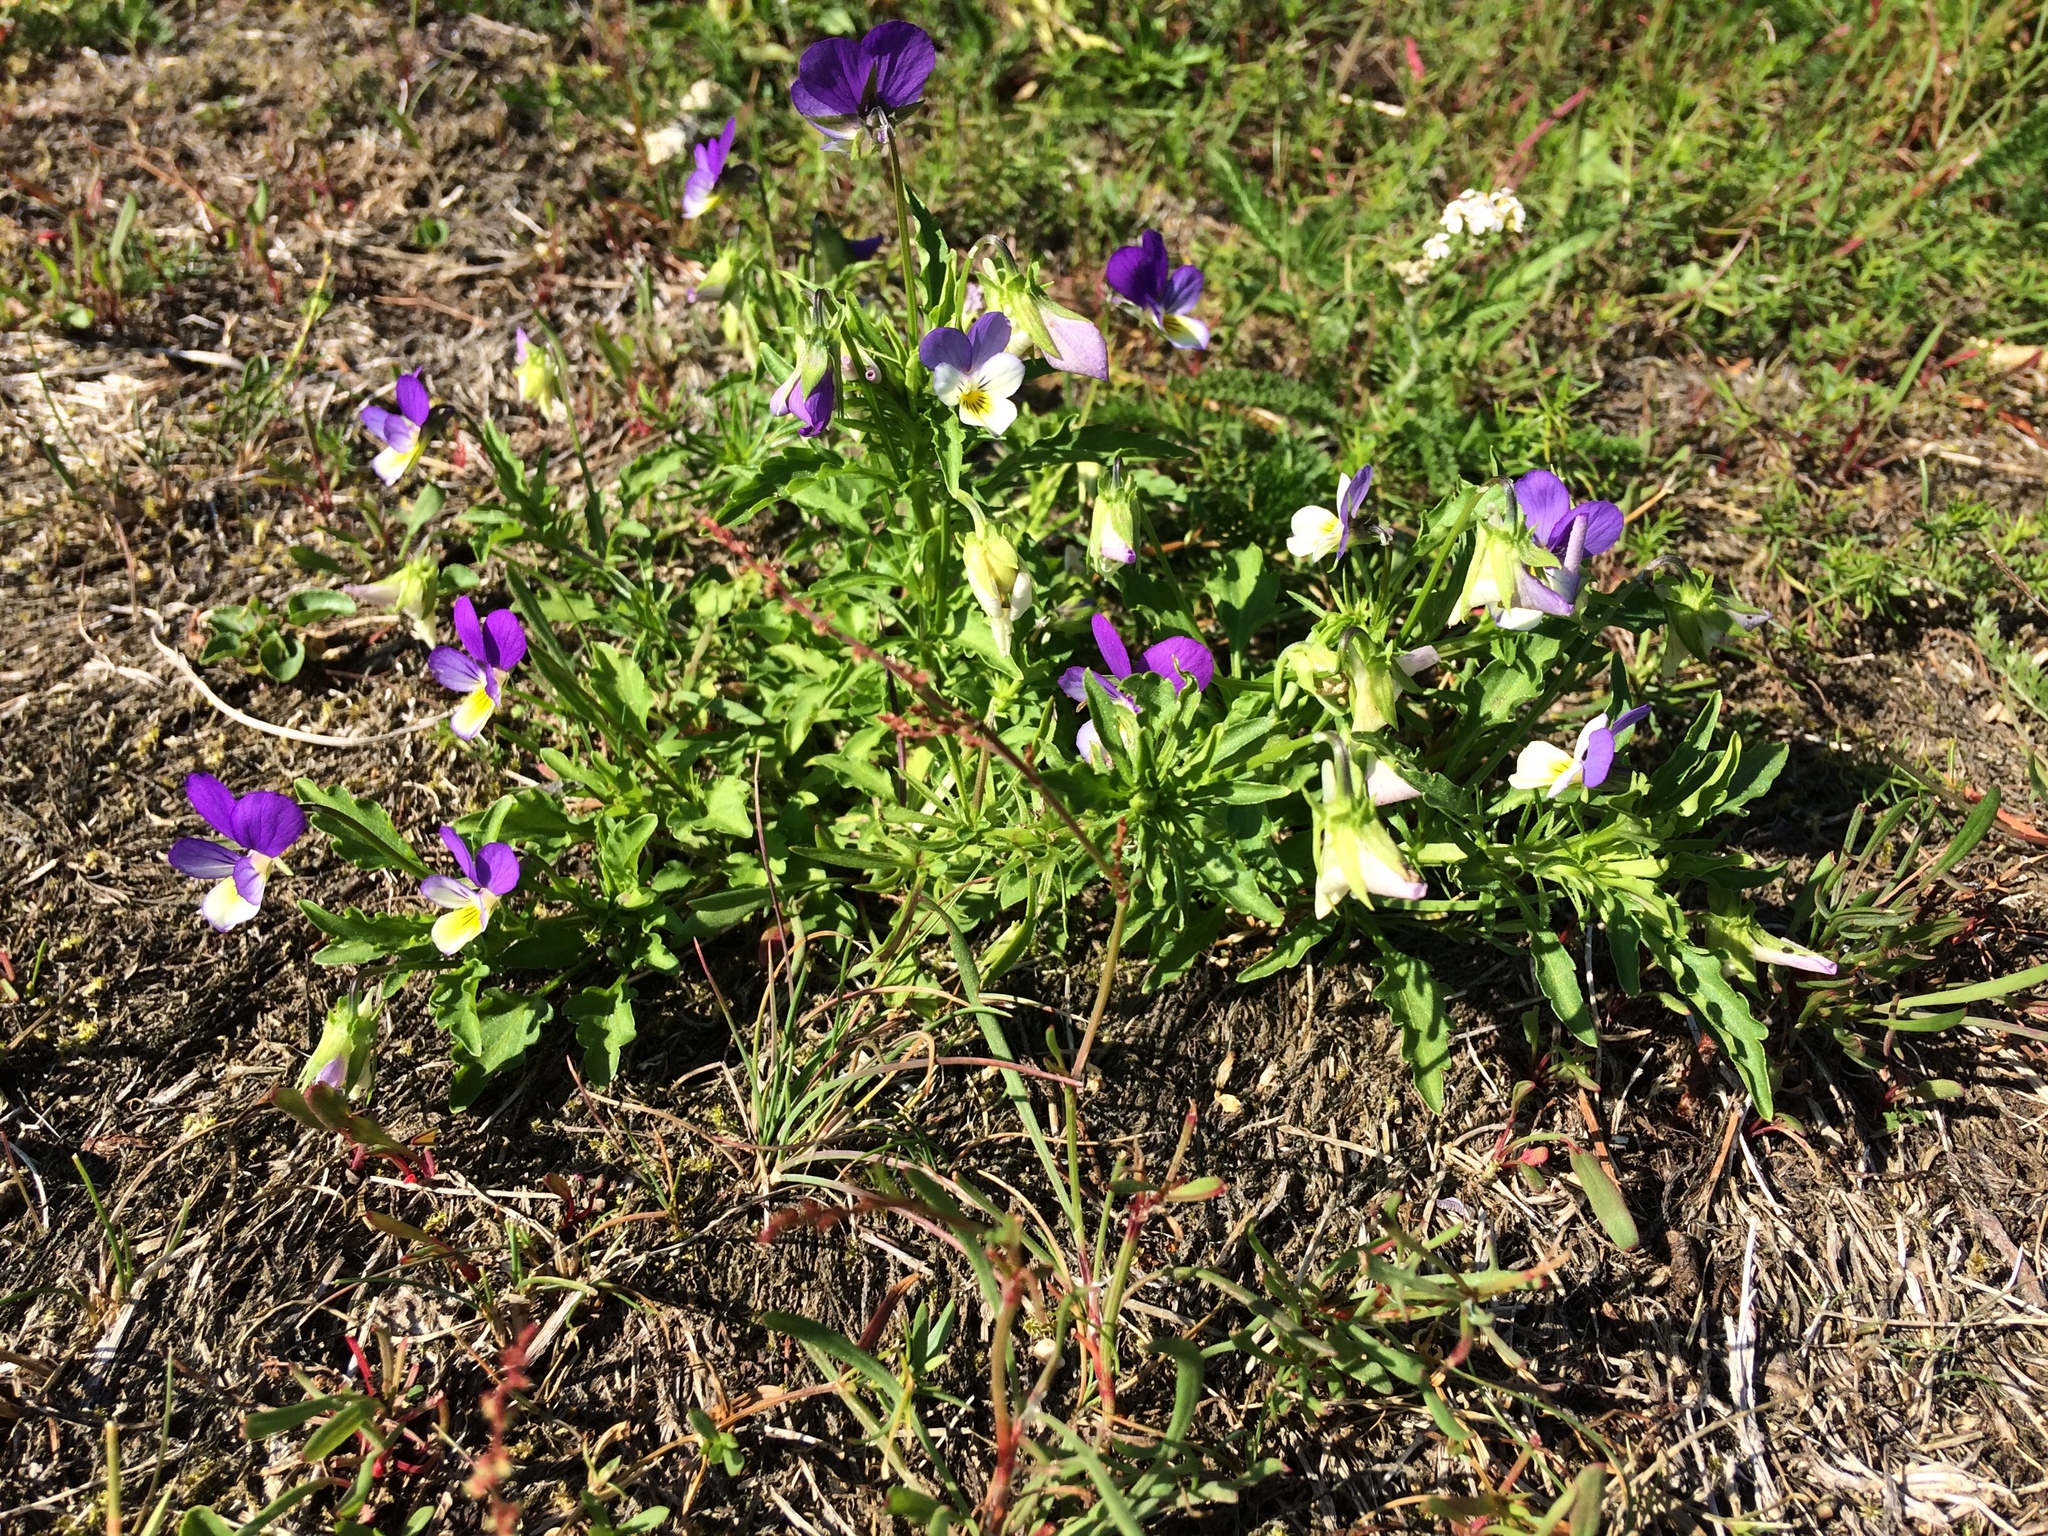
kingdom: Plantae
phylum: Tracheophyta
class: Magnoliopsida
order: Malpighiales
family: Violaceae
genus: Viola
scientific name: Viola tricolor
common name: Pansy
